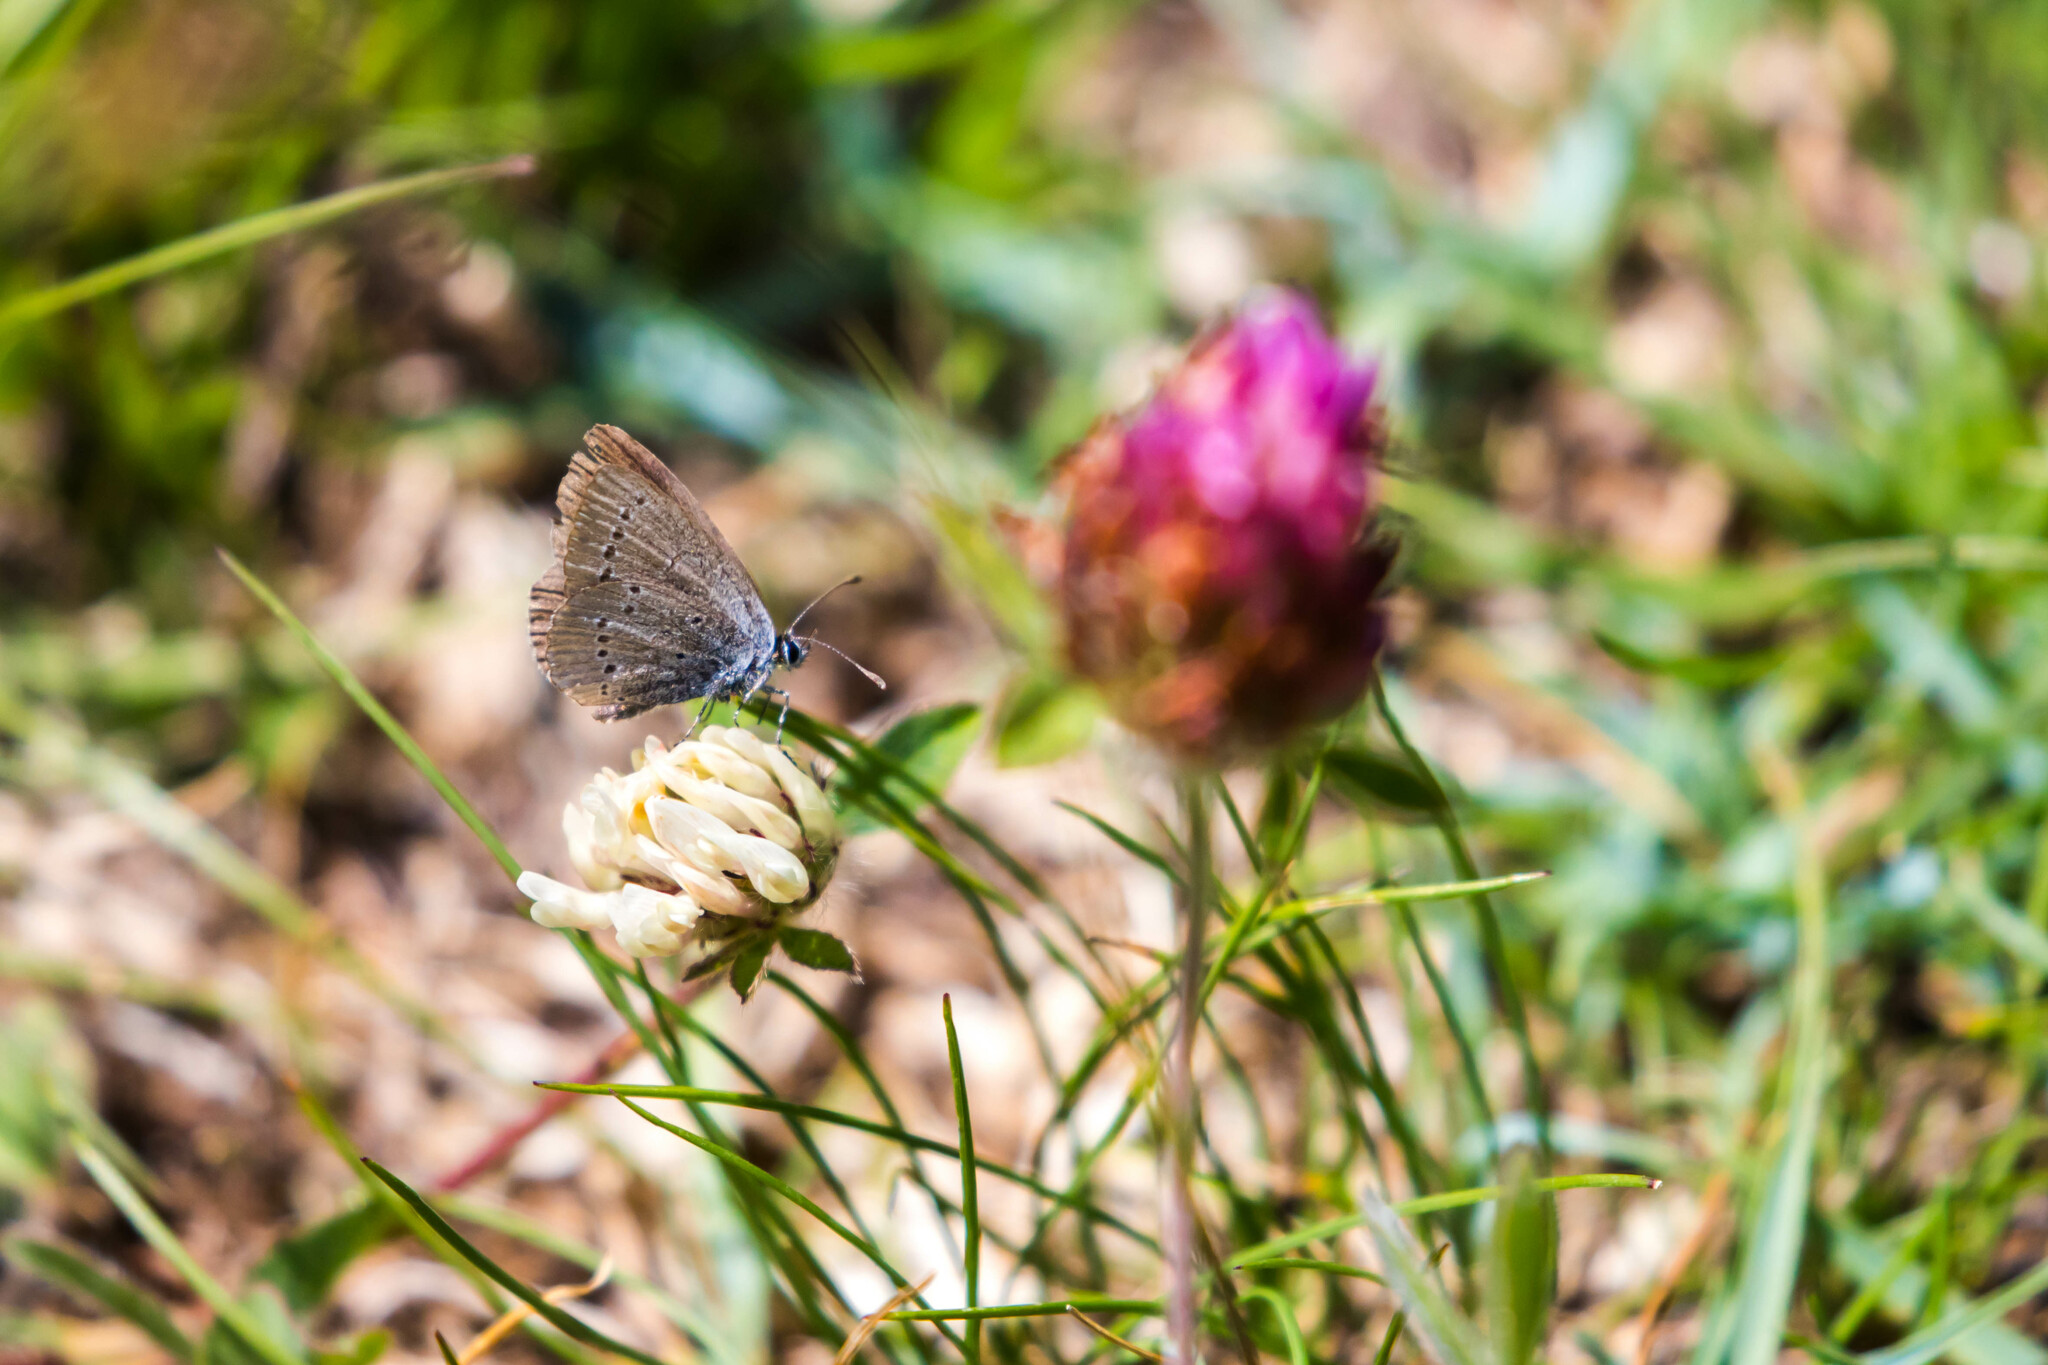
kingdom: Animalia
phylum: Arthropoda
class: Insecta
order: Lepidoptera
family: Lycaenidae
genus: Cupido
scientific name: Cupido minimus
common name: Small blue
